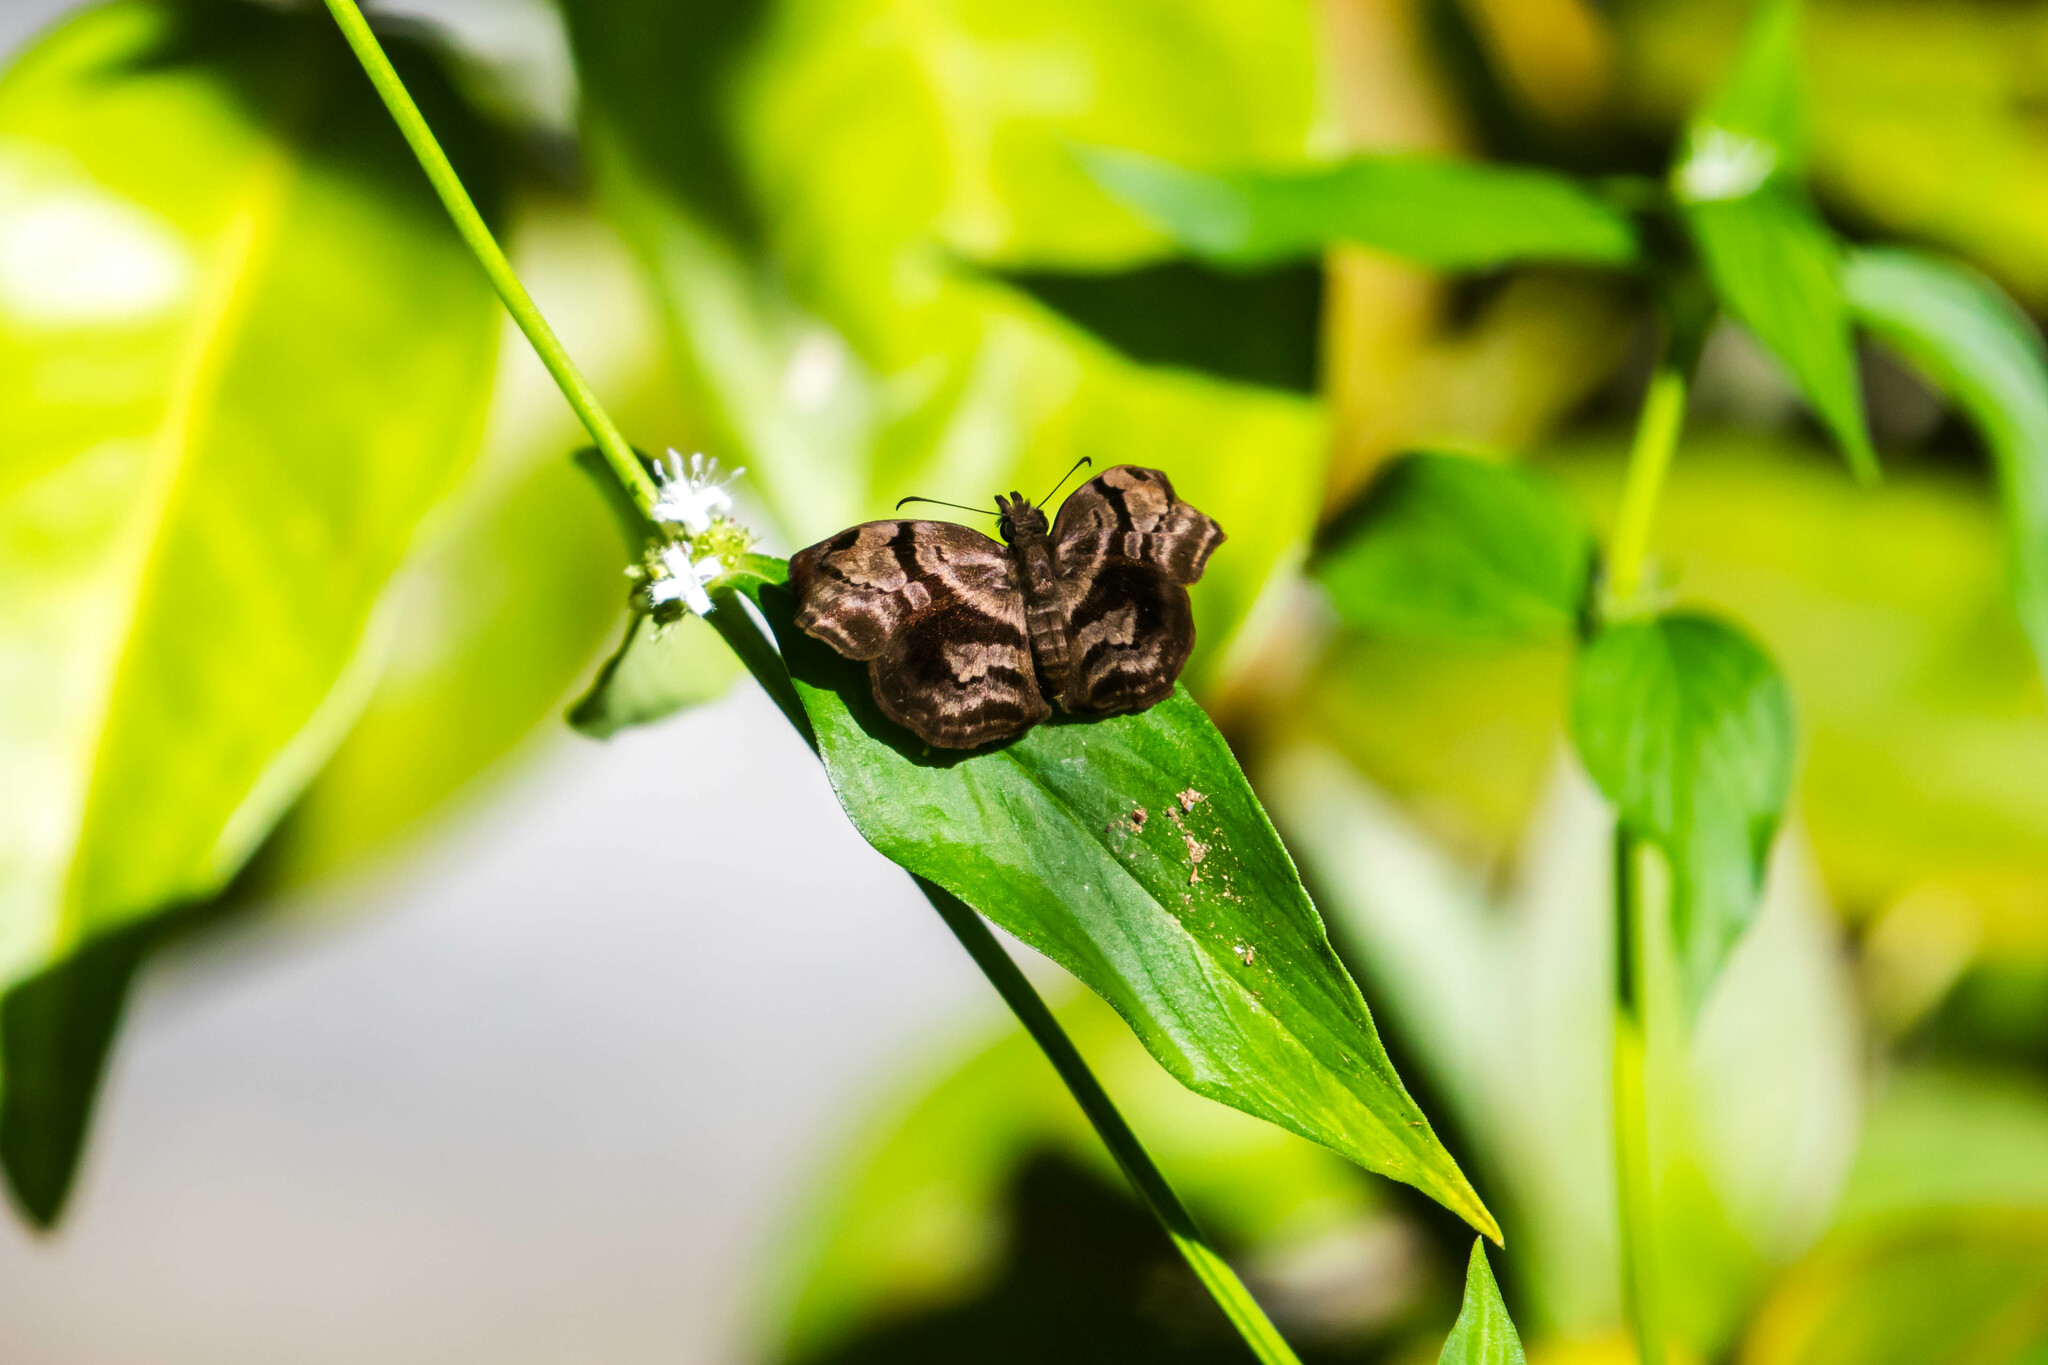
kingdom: Animalia
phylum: Arthropoda
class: Insecta
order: Lepidoptera
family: Hesperiidae
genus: Helias
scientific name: Helias phalaenoides
